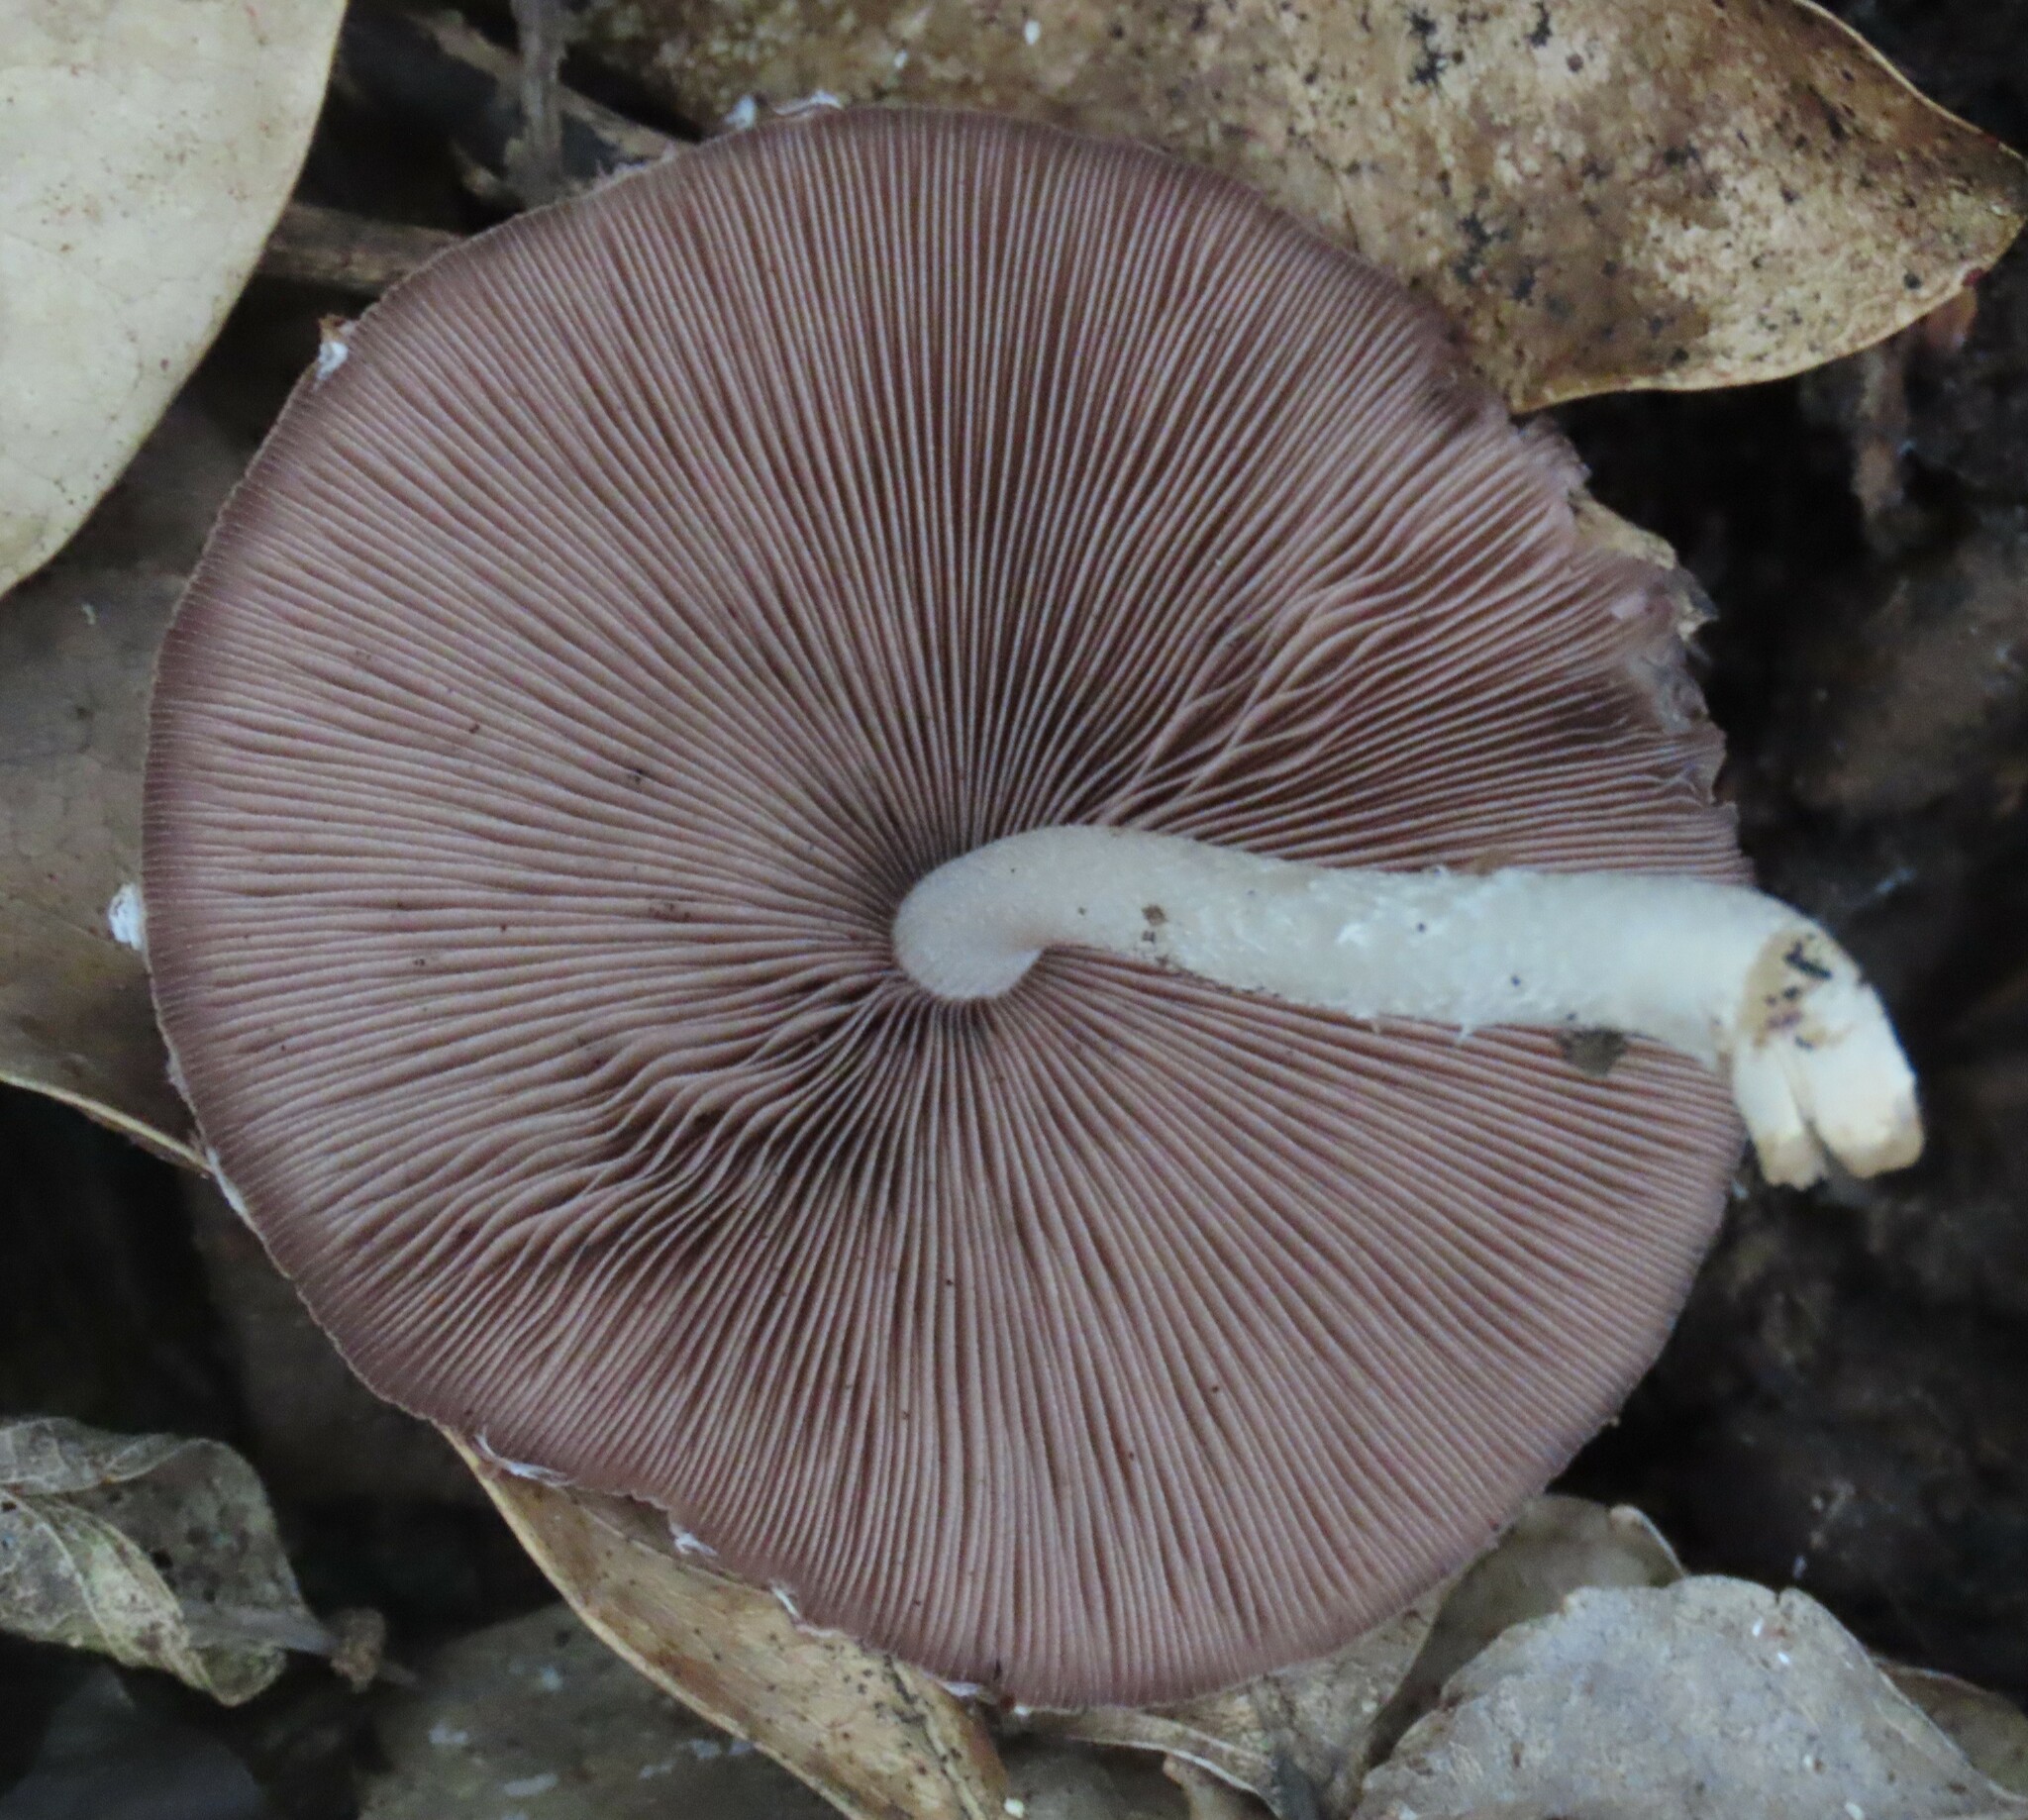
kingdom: Fungi
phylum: Basidiomycota
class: Agaricomycetes
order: Agaricales
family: Psathyrellaceae
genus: Candolleomyces
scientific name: Candolleomyces candolleanus
